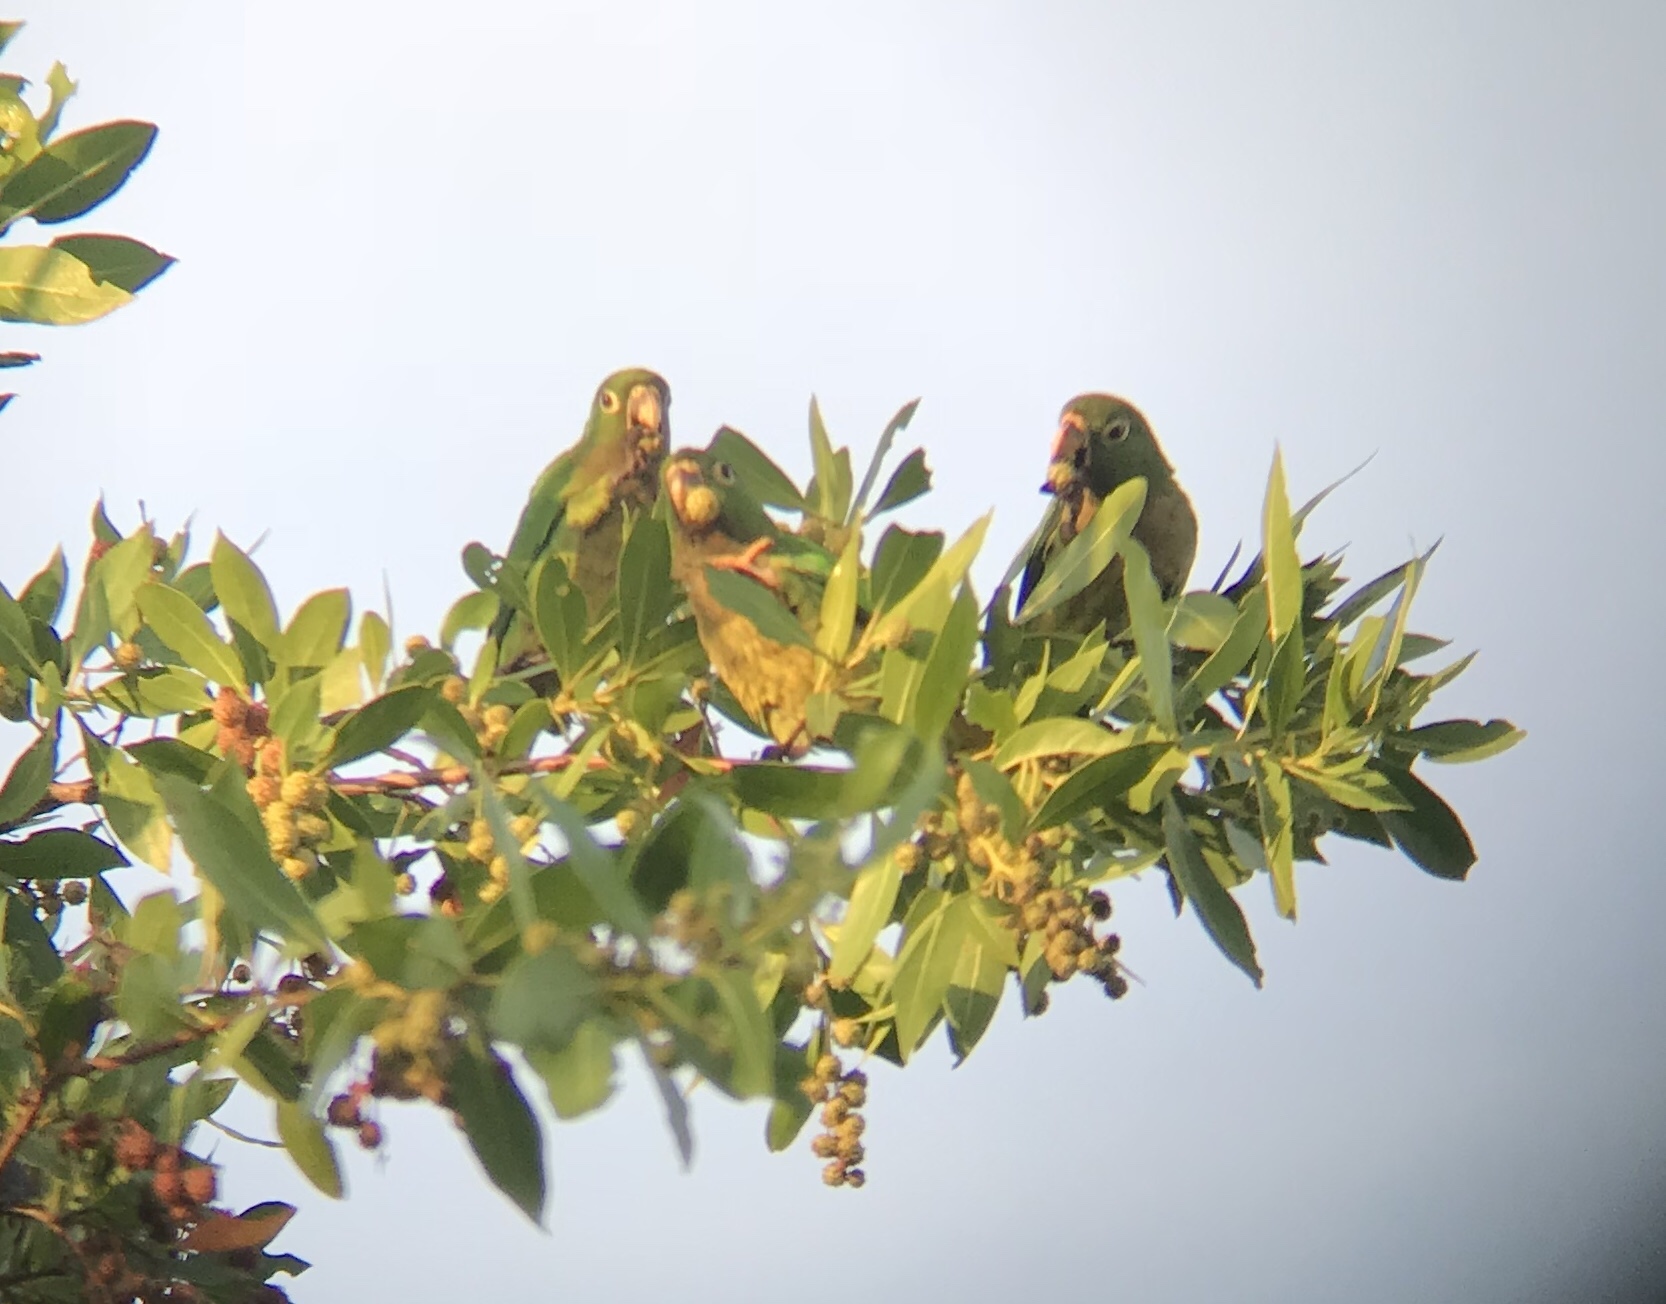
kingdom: Animalia
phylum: Chordata
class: Aves
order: Psittaciformes
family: Psittacidae
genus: Aratinga
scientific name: Aratinga nana
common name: Olive-throated parakeet
